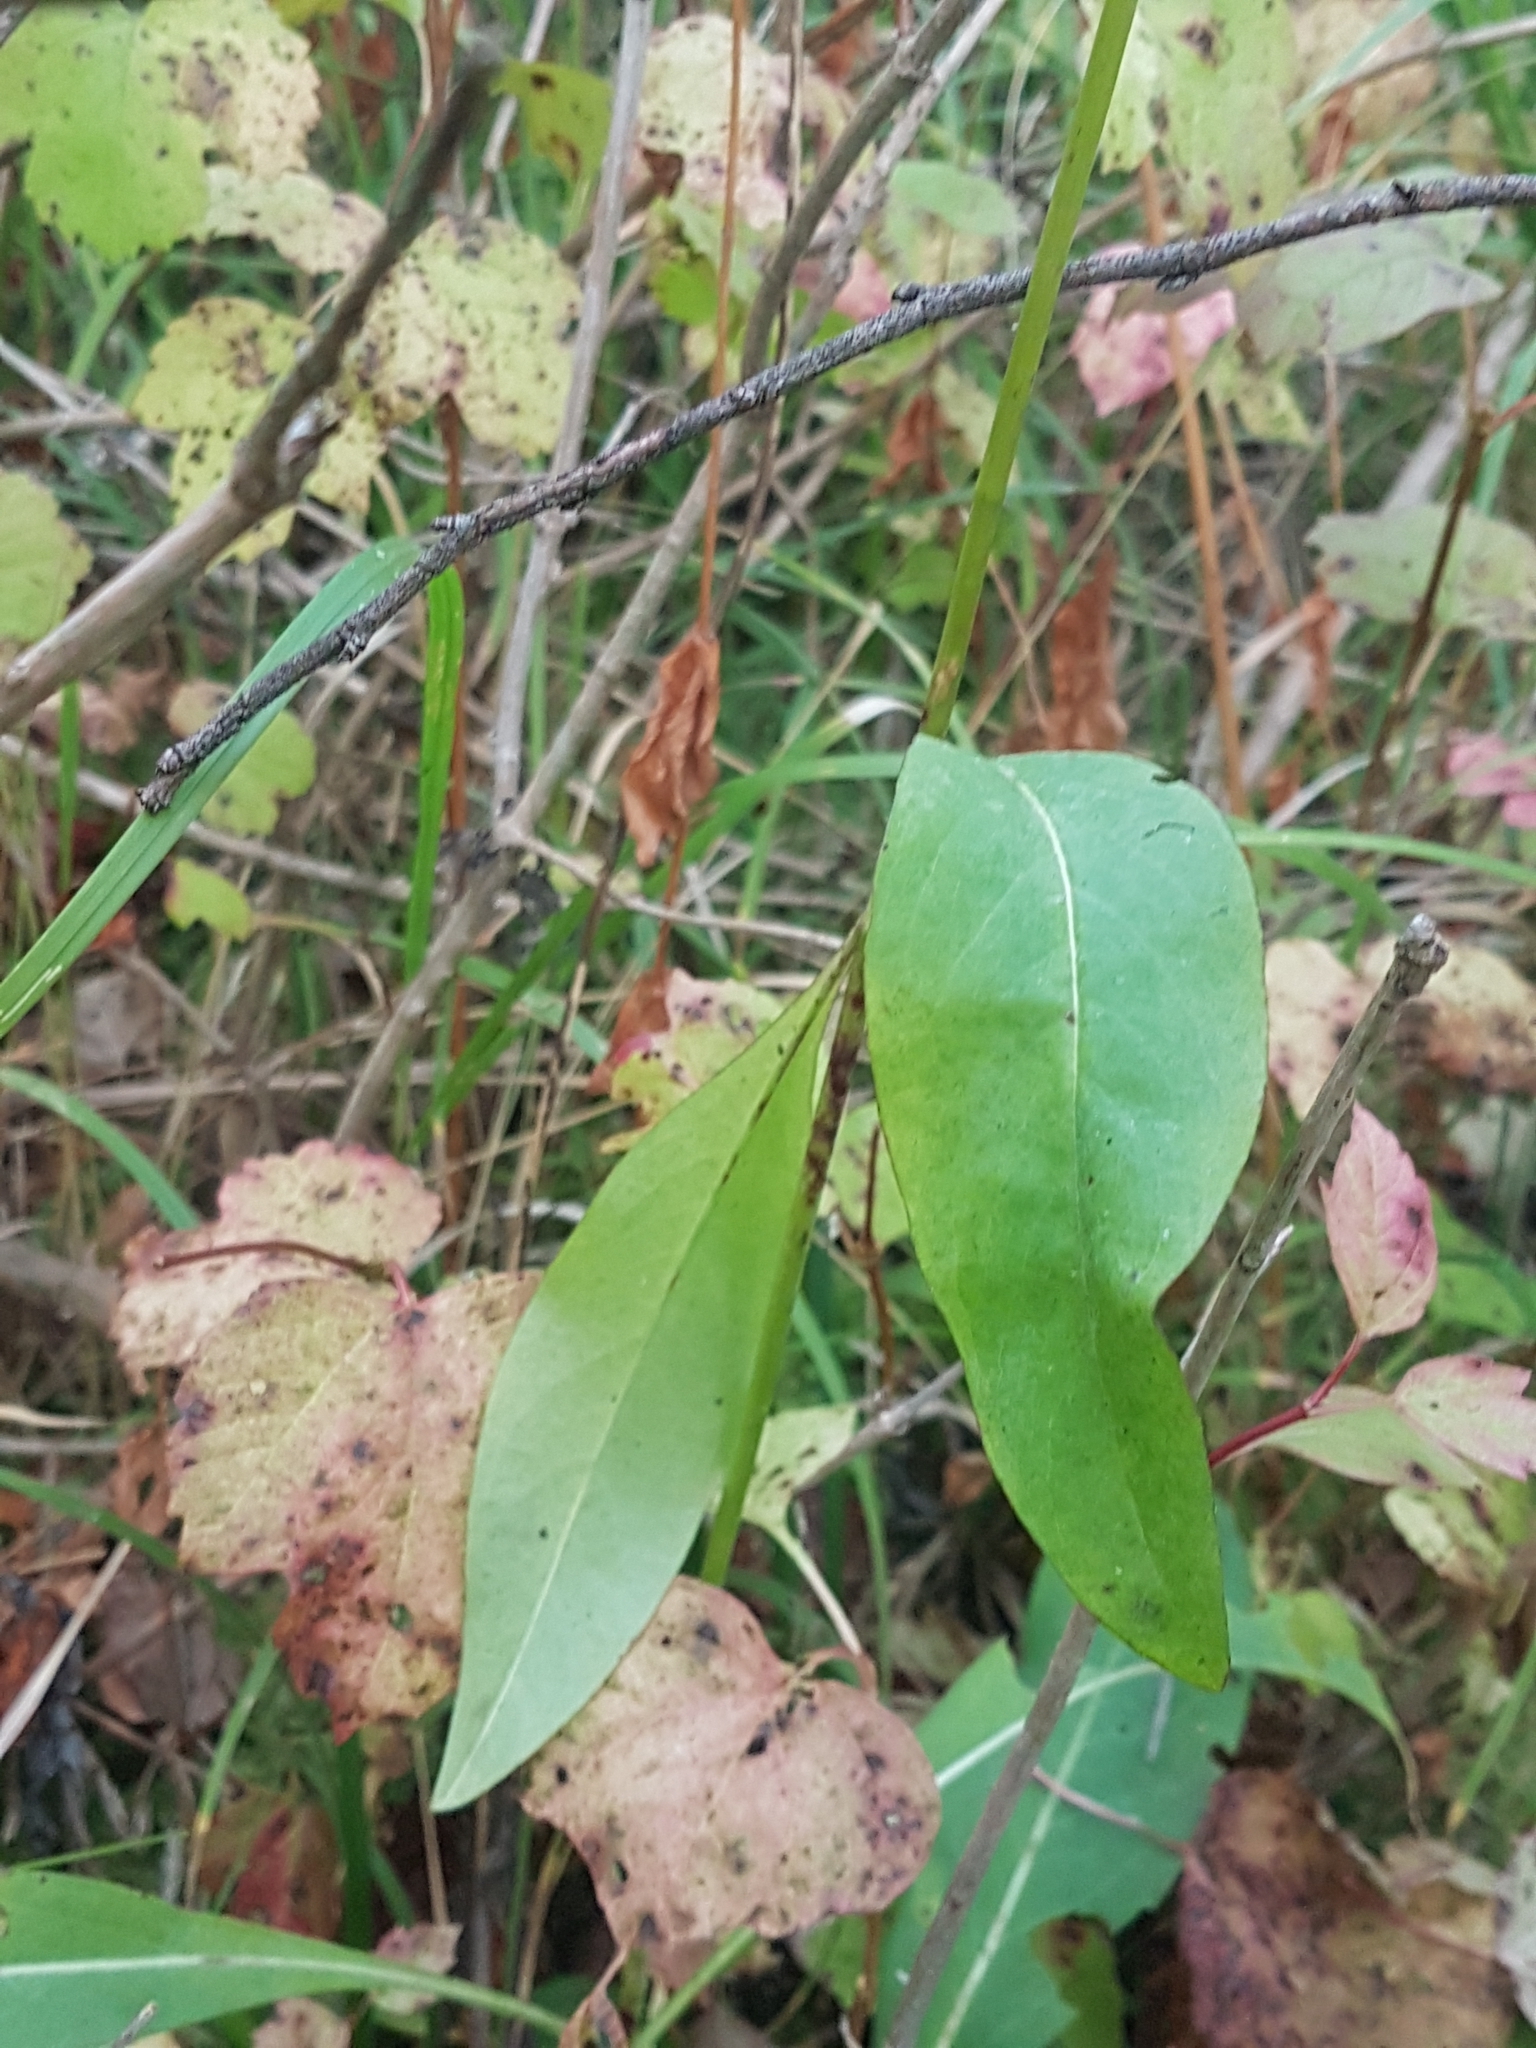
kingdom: Plantae
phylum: Tracheophyta
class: Magnoliopsida
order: Dipsacales
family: Caprifoliaceae
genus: Succisa
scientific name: Succisa pratensis
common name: Devil's-bit
